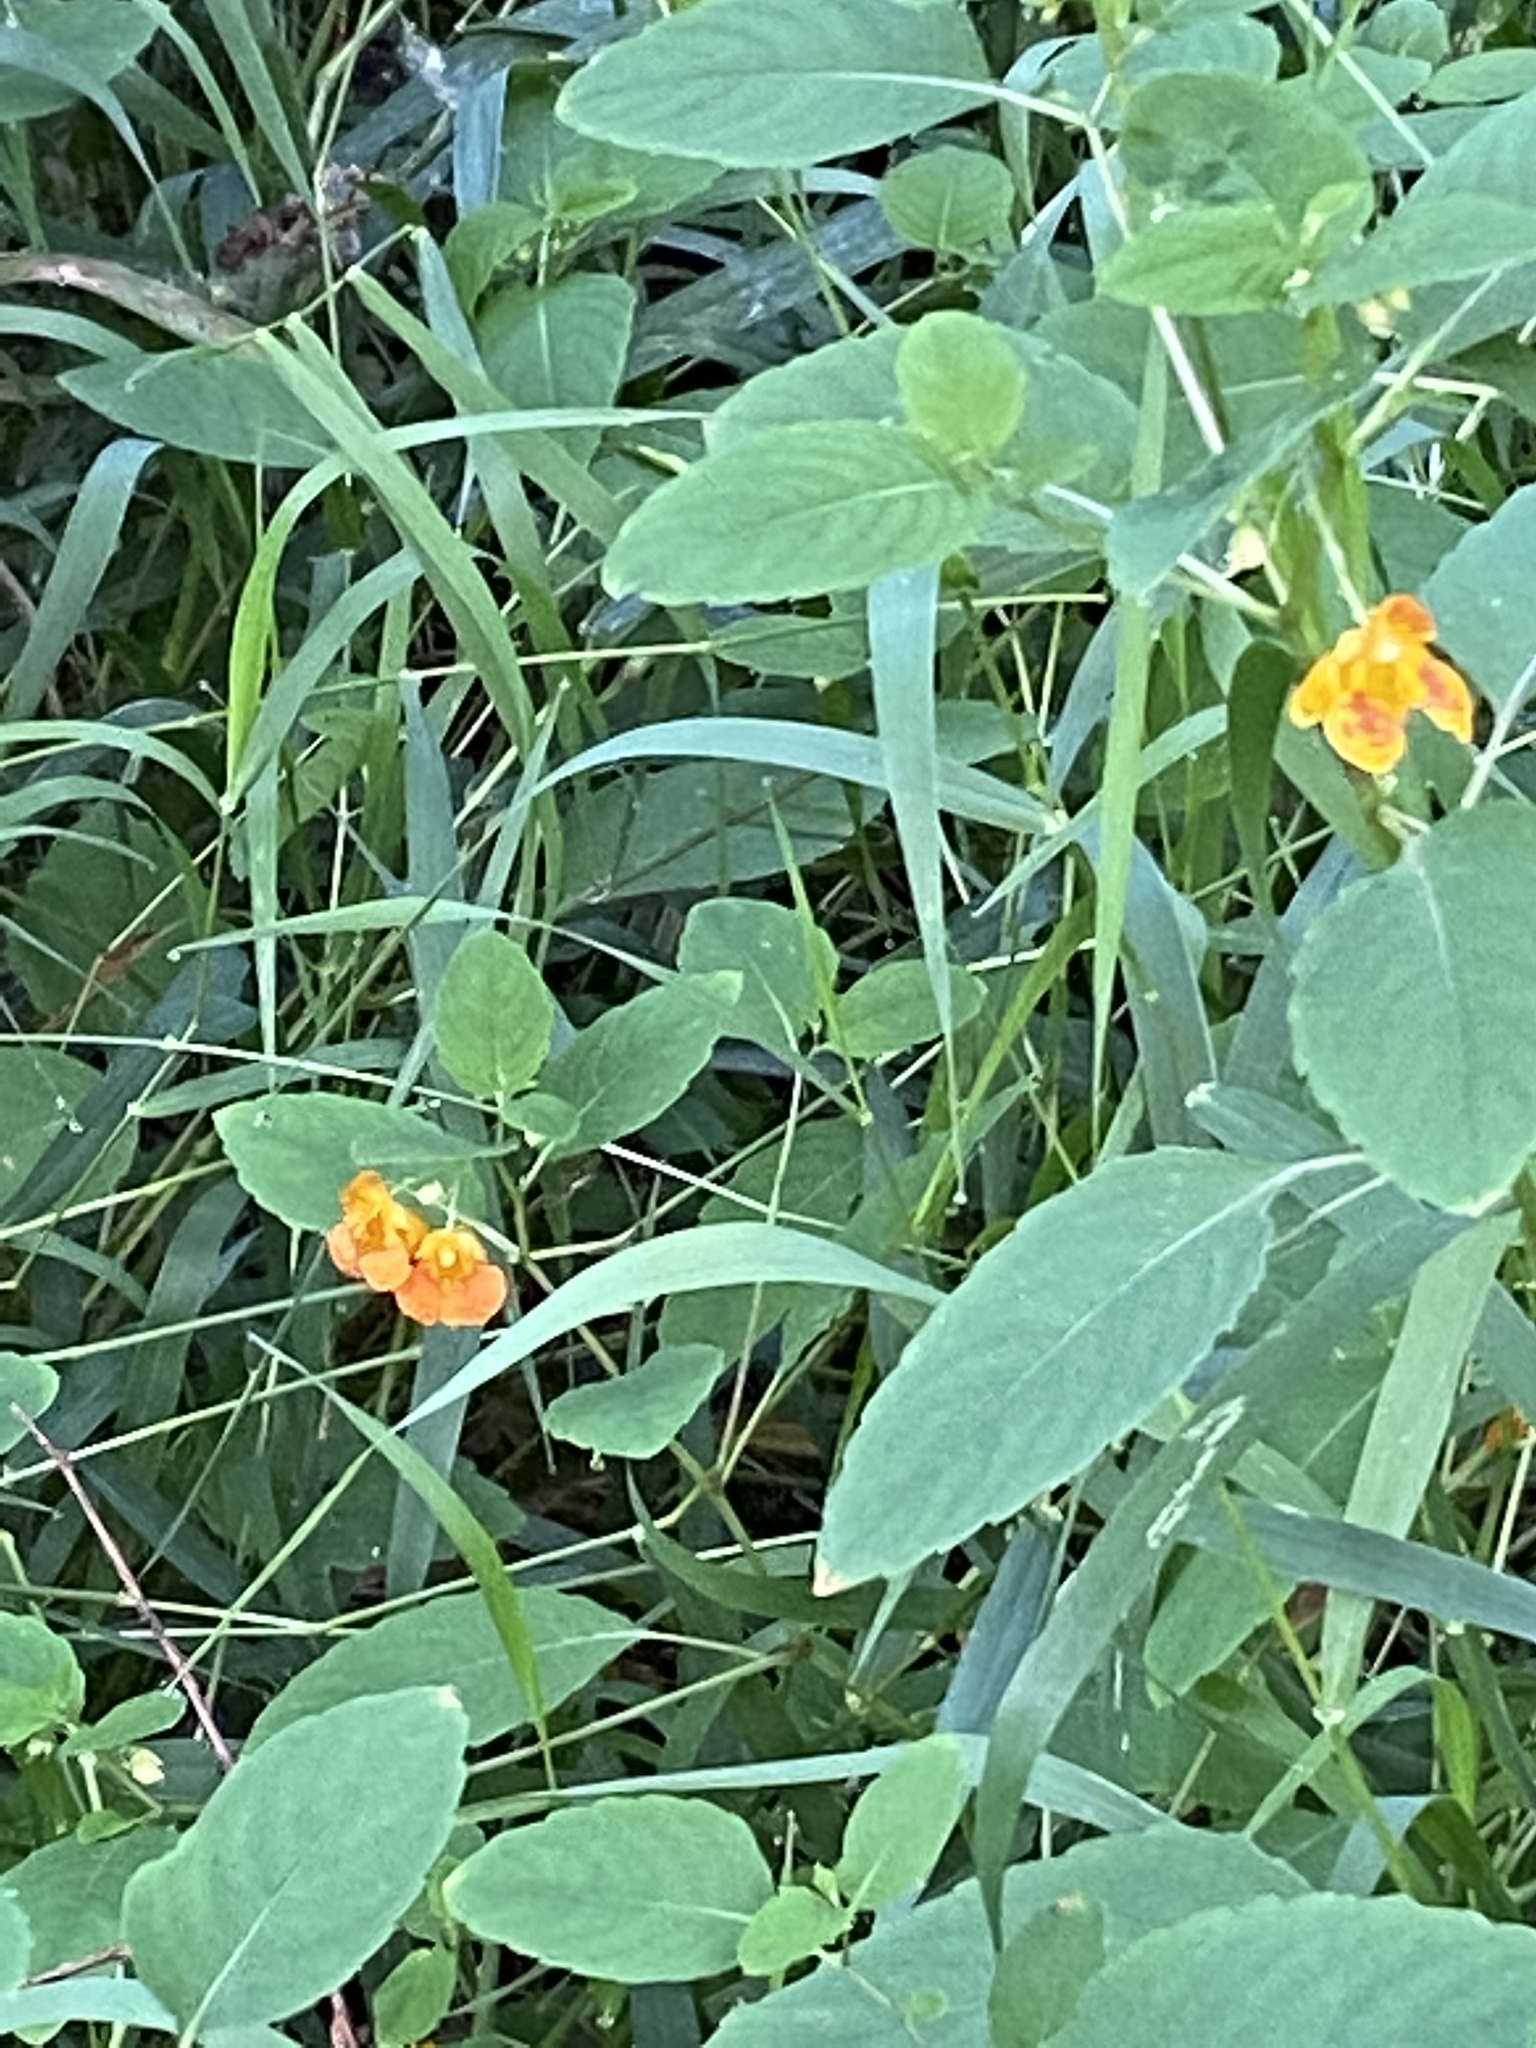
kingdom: Plantae
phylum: Tracheophyta
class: Magnoliopsida
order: Ericales
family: Balsaminaceae
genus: Impatiens
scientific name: Impatiens capensis
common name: Orange balsam
